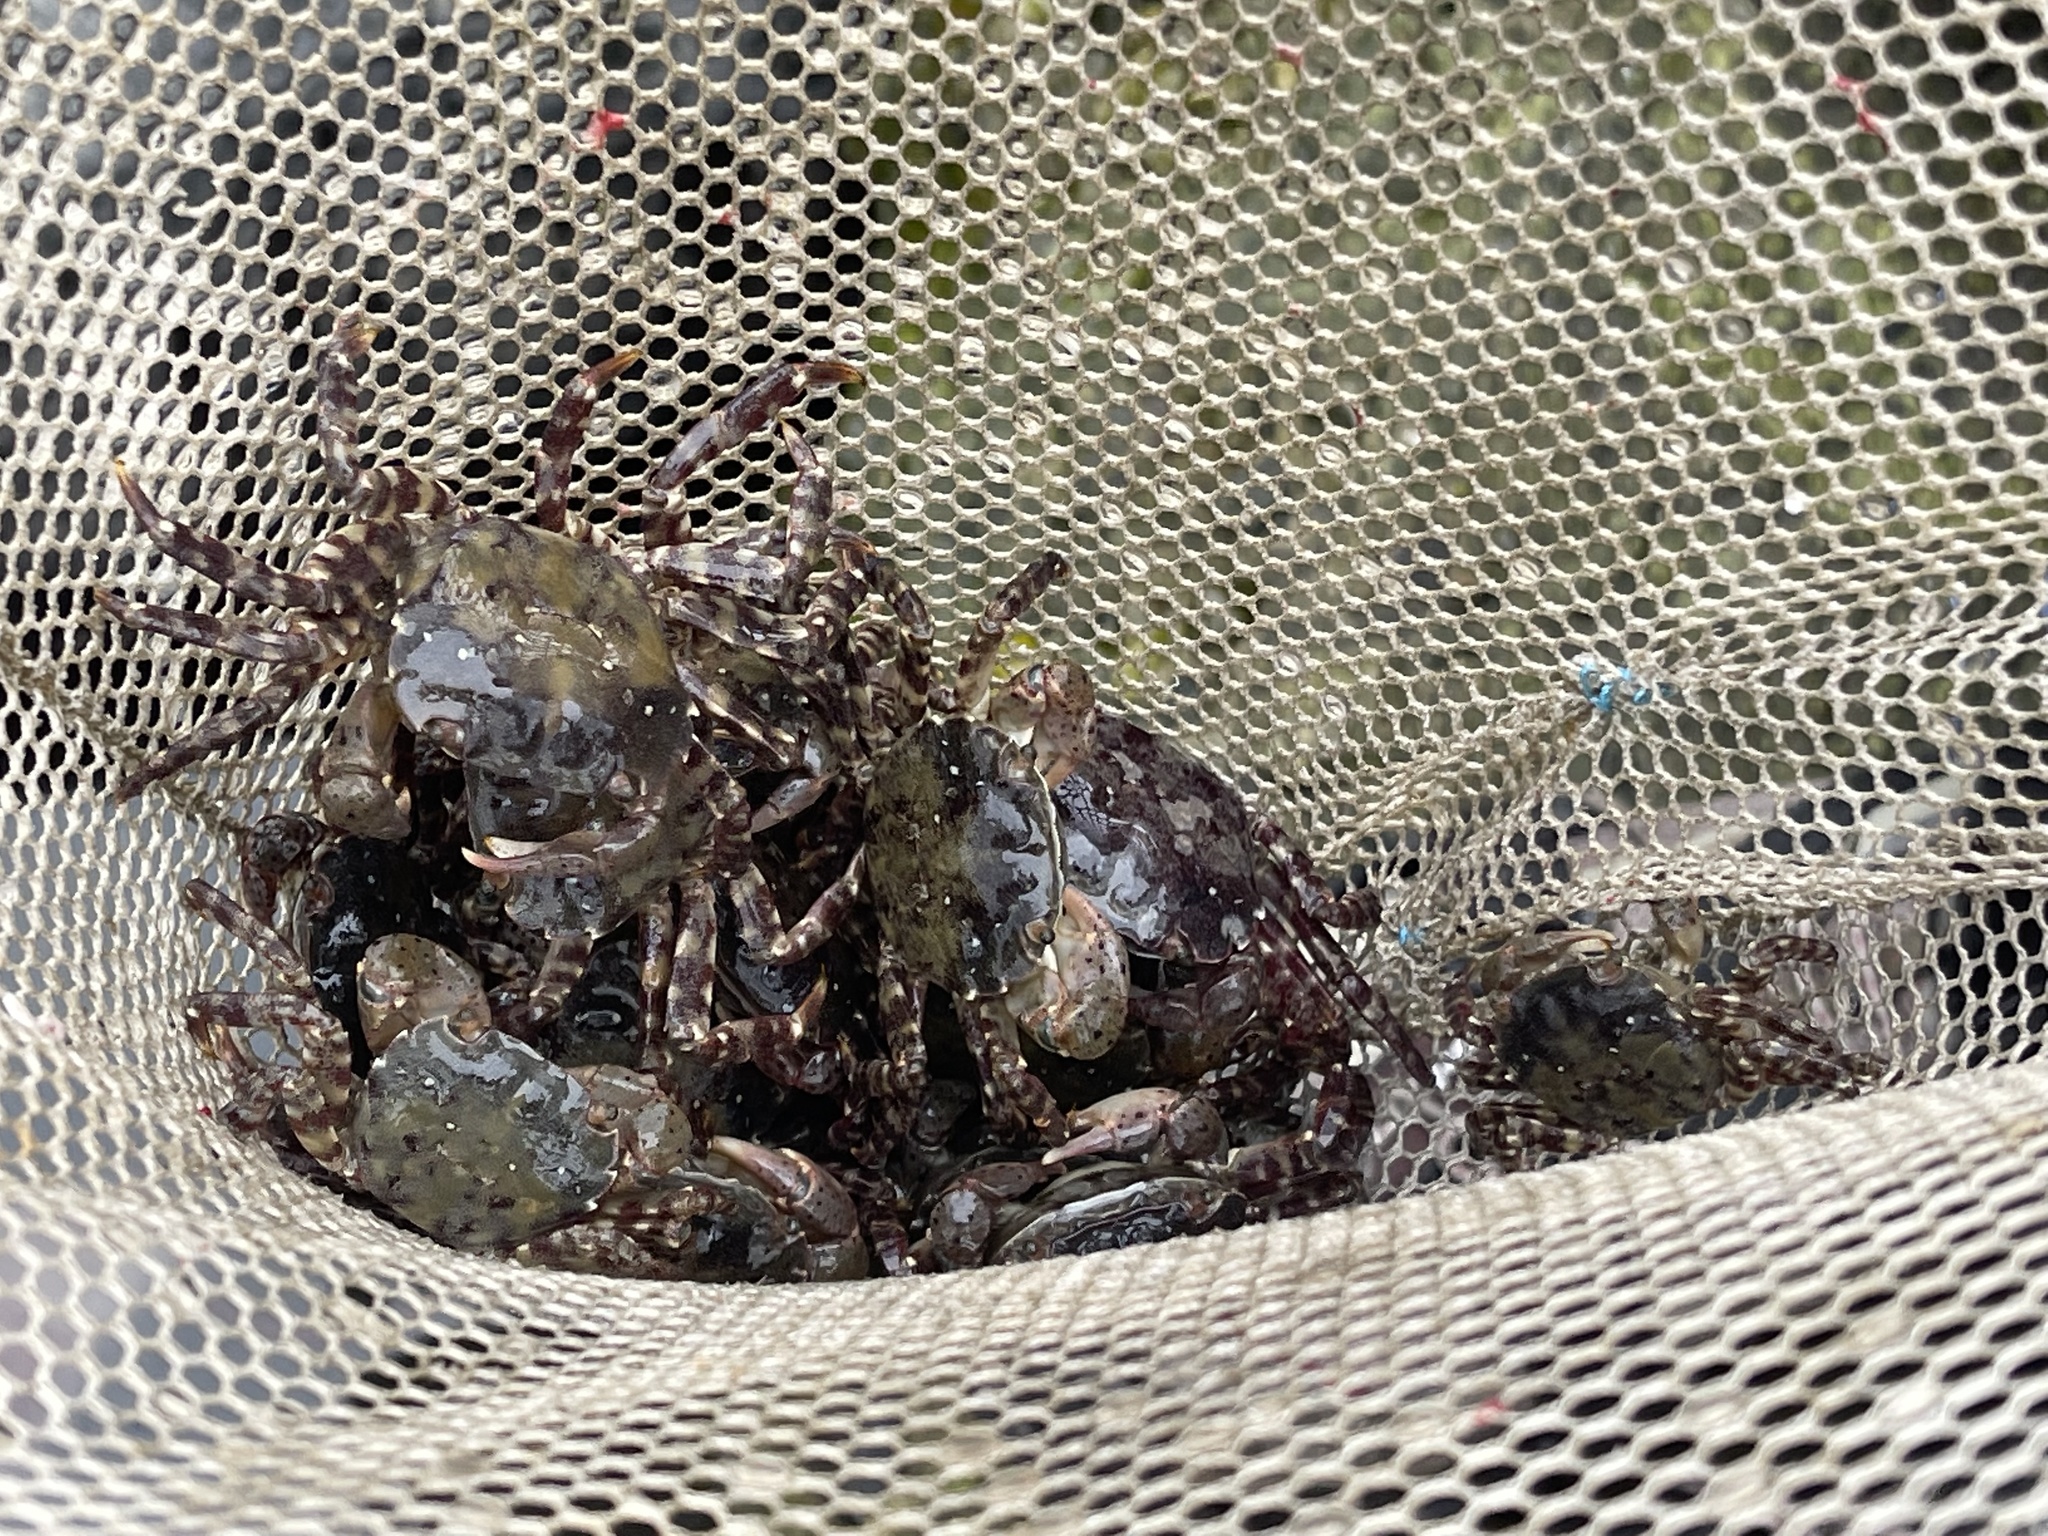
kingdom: Animalia
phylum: Arthropoda
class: Malacostraca
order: Decapoda
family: Varunidae
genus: Hemigrapsus
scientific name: Hemigrapsus sanguineus
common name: Asian shore crab
